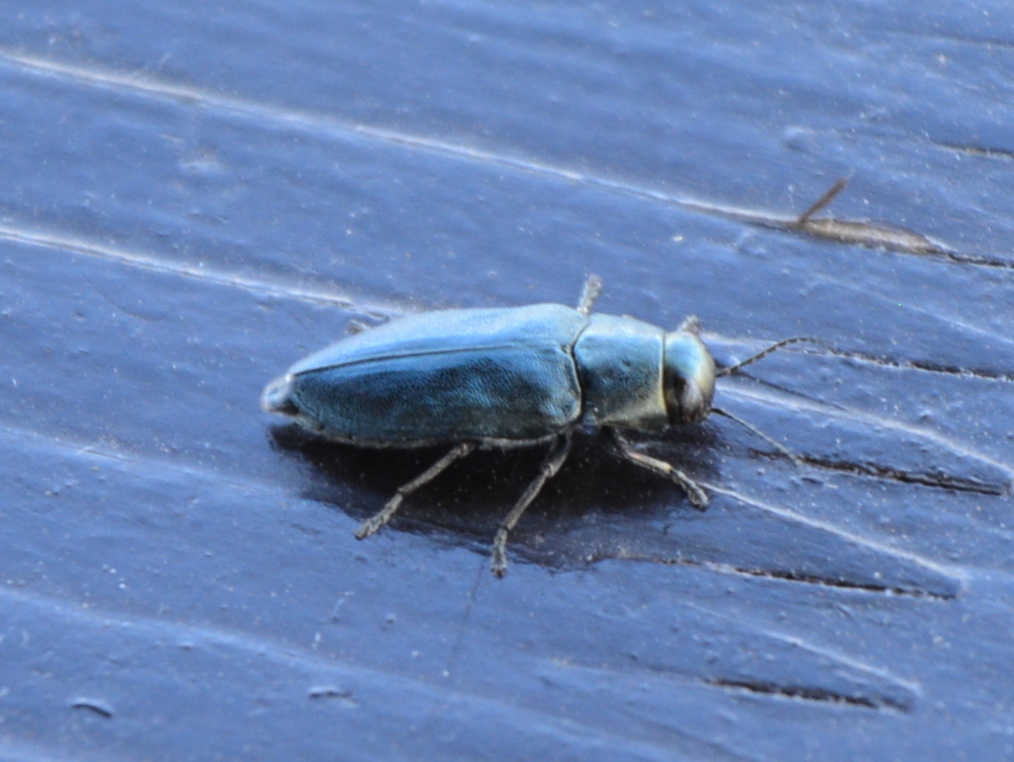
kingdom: Animalia
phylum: Arthropoda
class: Insecta
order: Coleoptera
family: Buprestidae
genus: Phaenops
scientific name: Phaenops cyanea
